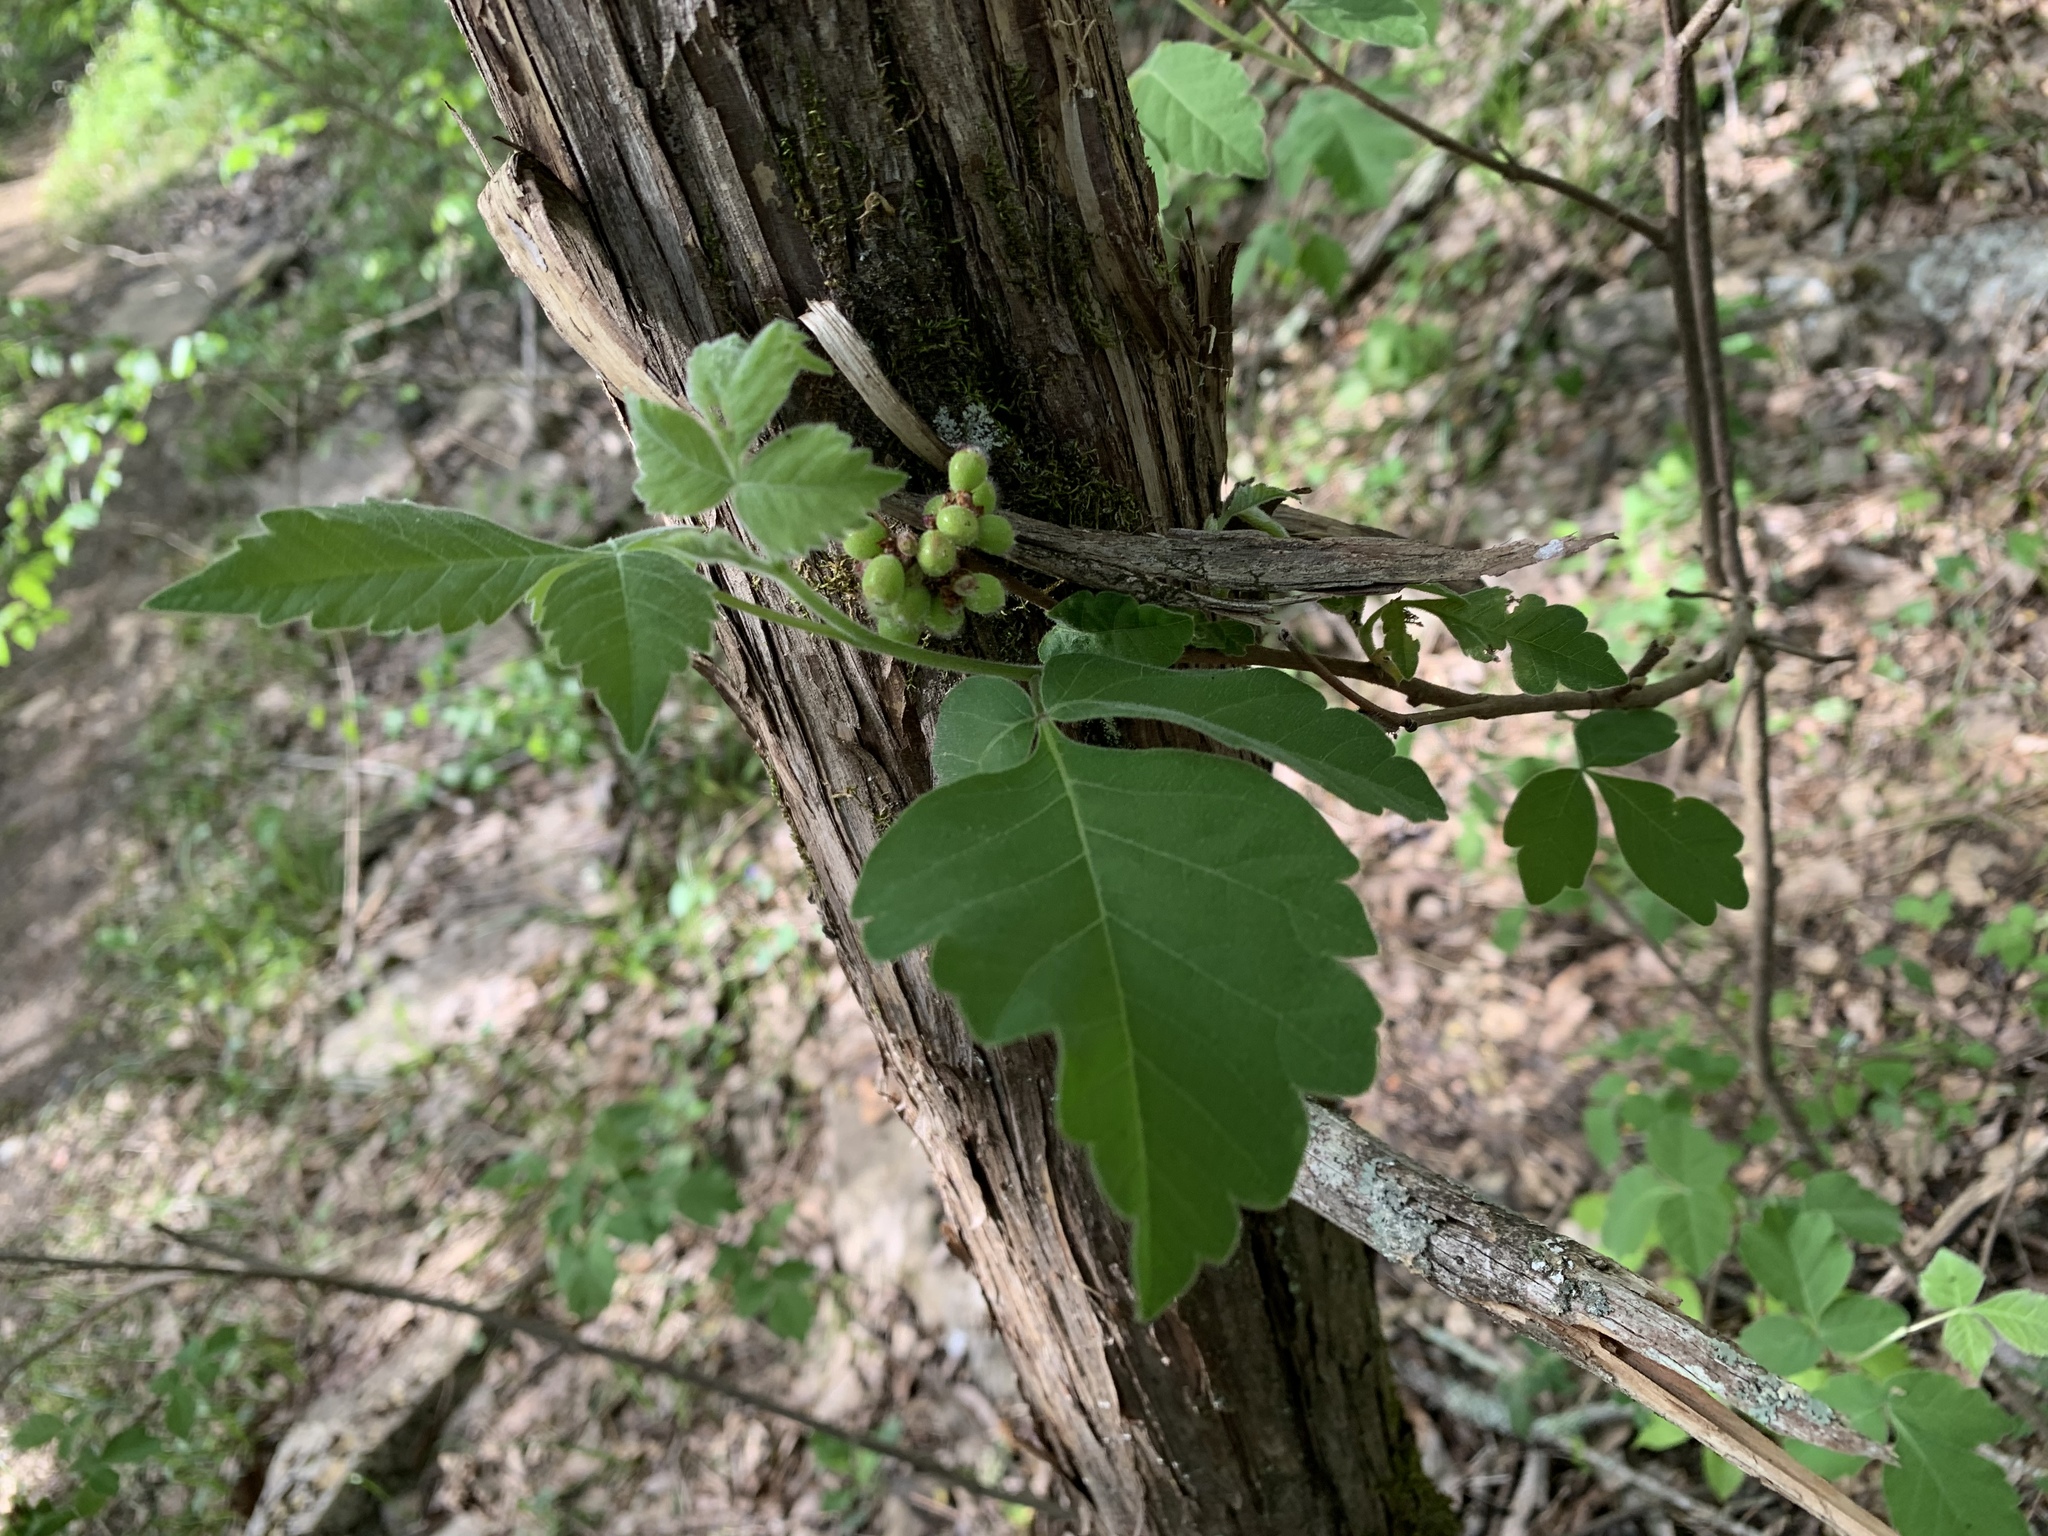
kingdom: Plantae
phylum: Tracheophyta
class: Magnoliopsida
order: Sapindales
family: Anacardiaceae
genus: Rhus
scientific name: Rhus aromatica
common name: Aromatic sumac
